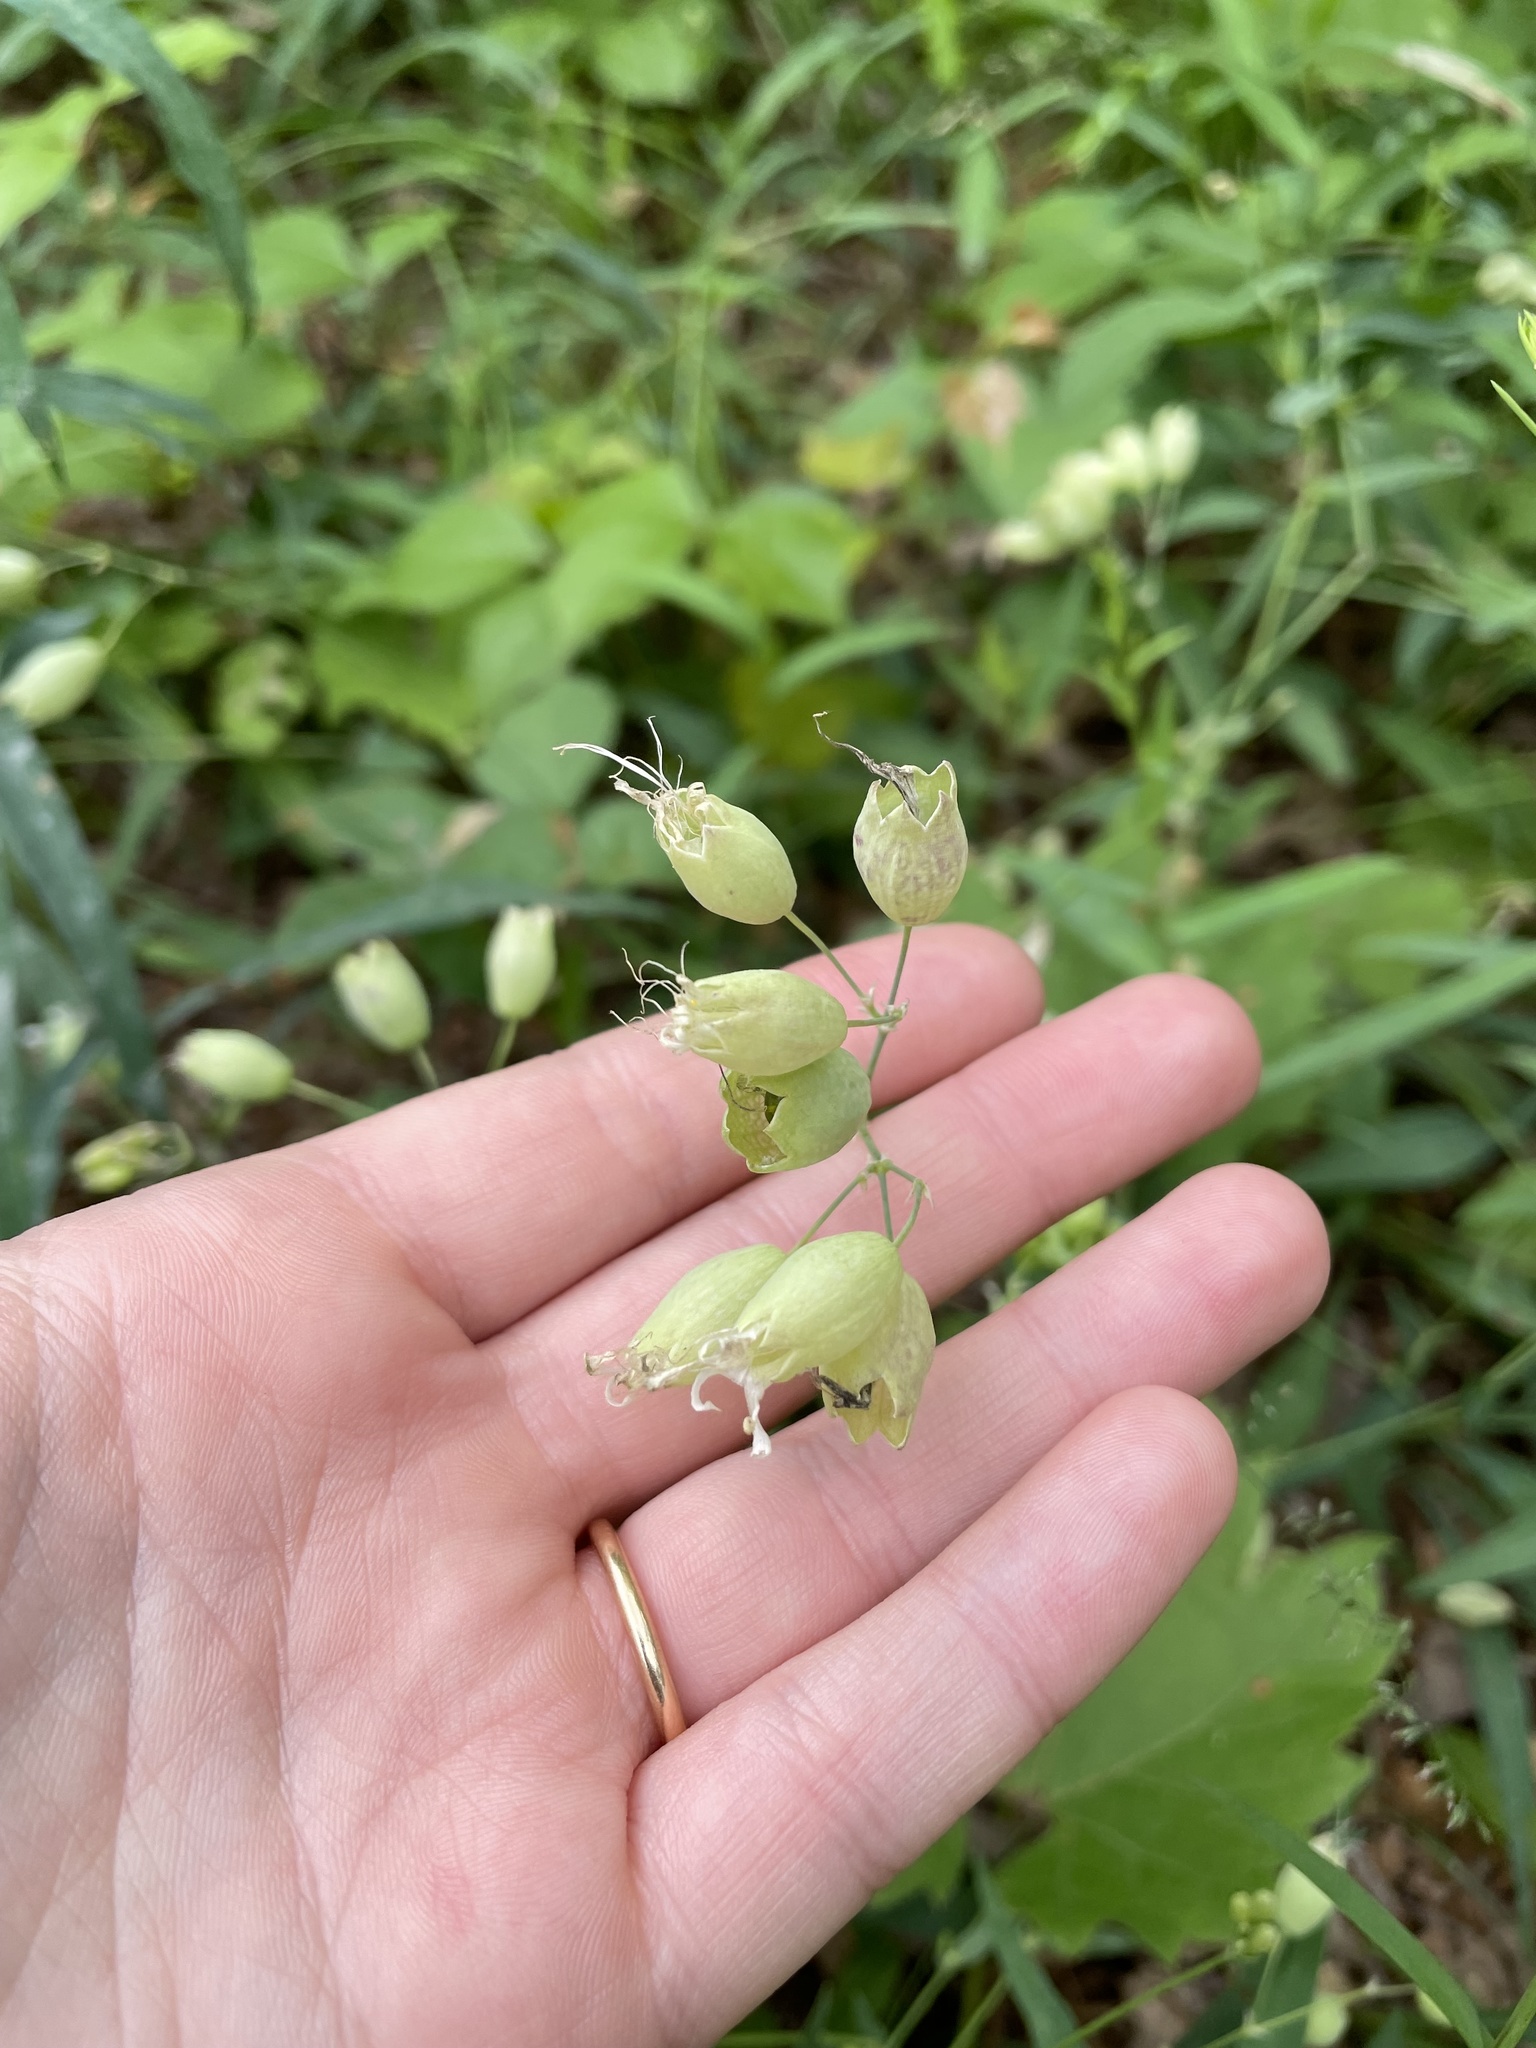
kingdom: Plantae
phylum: Tracheophyta
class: Magnoliopsida
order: Caryophyllales
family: Caryophyllaceae
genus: Silene
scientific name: Silene vulgaris
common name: Bladder campion
